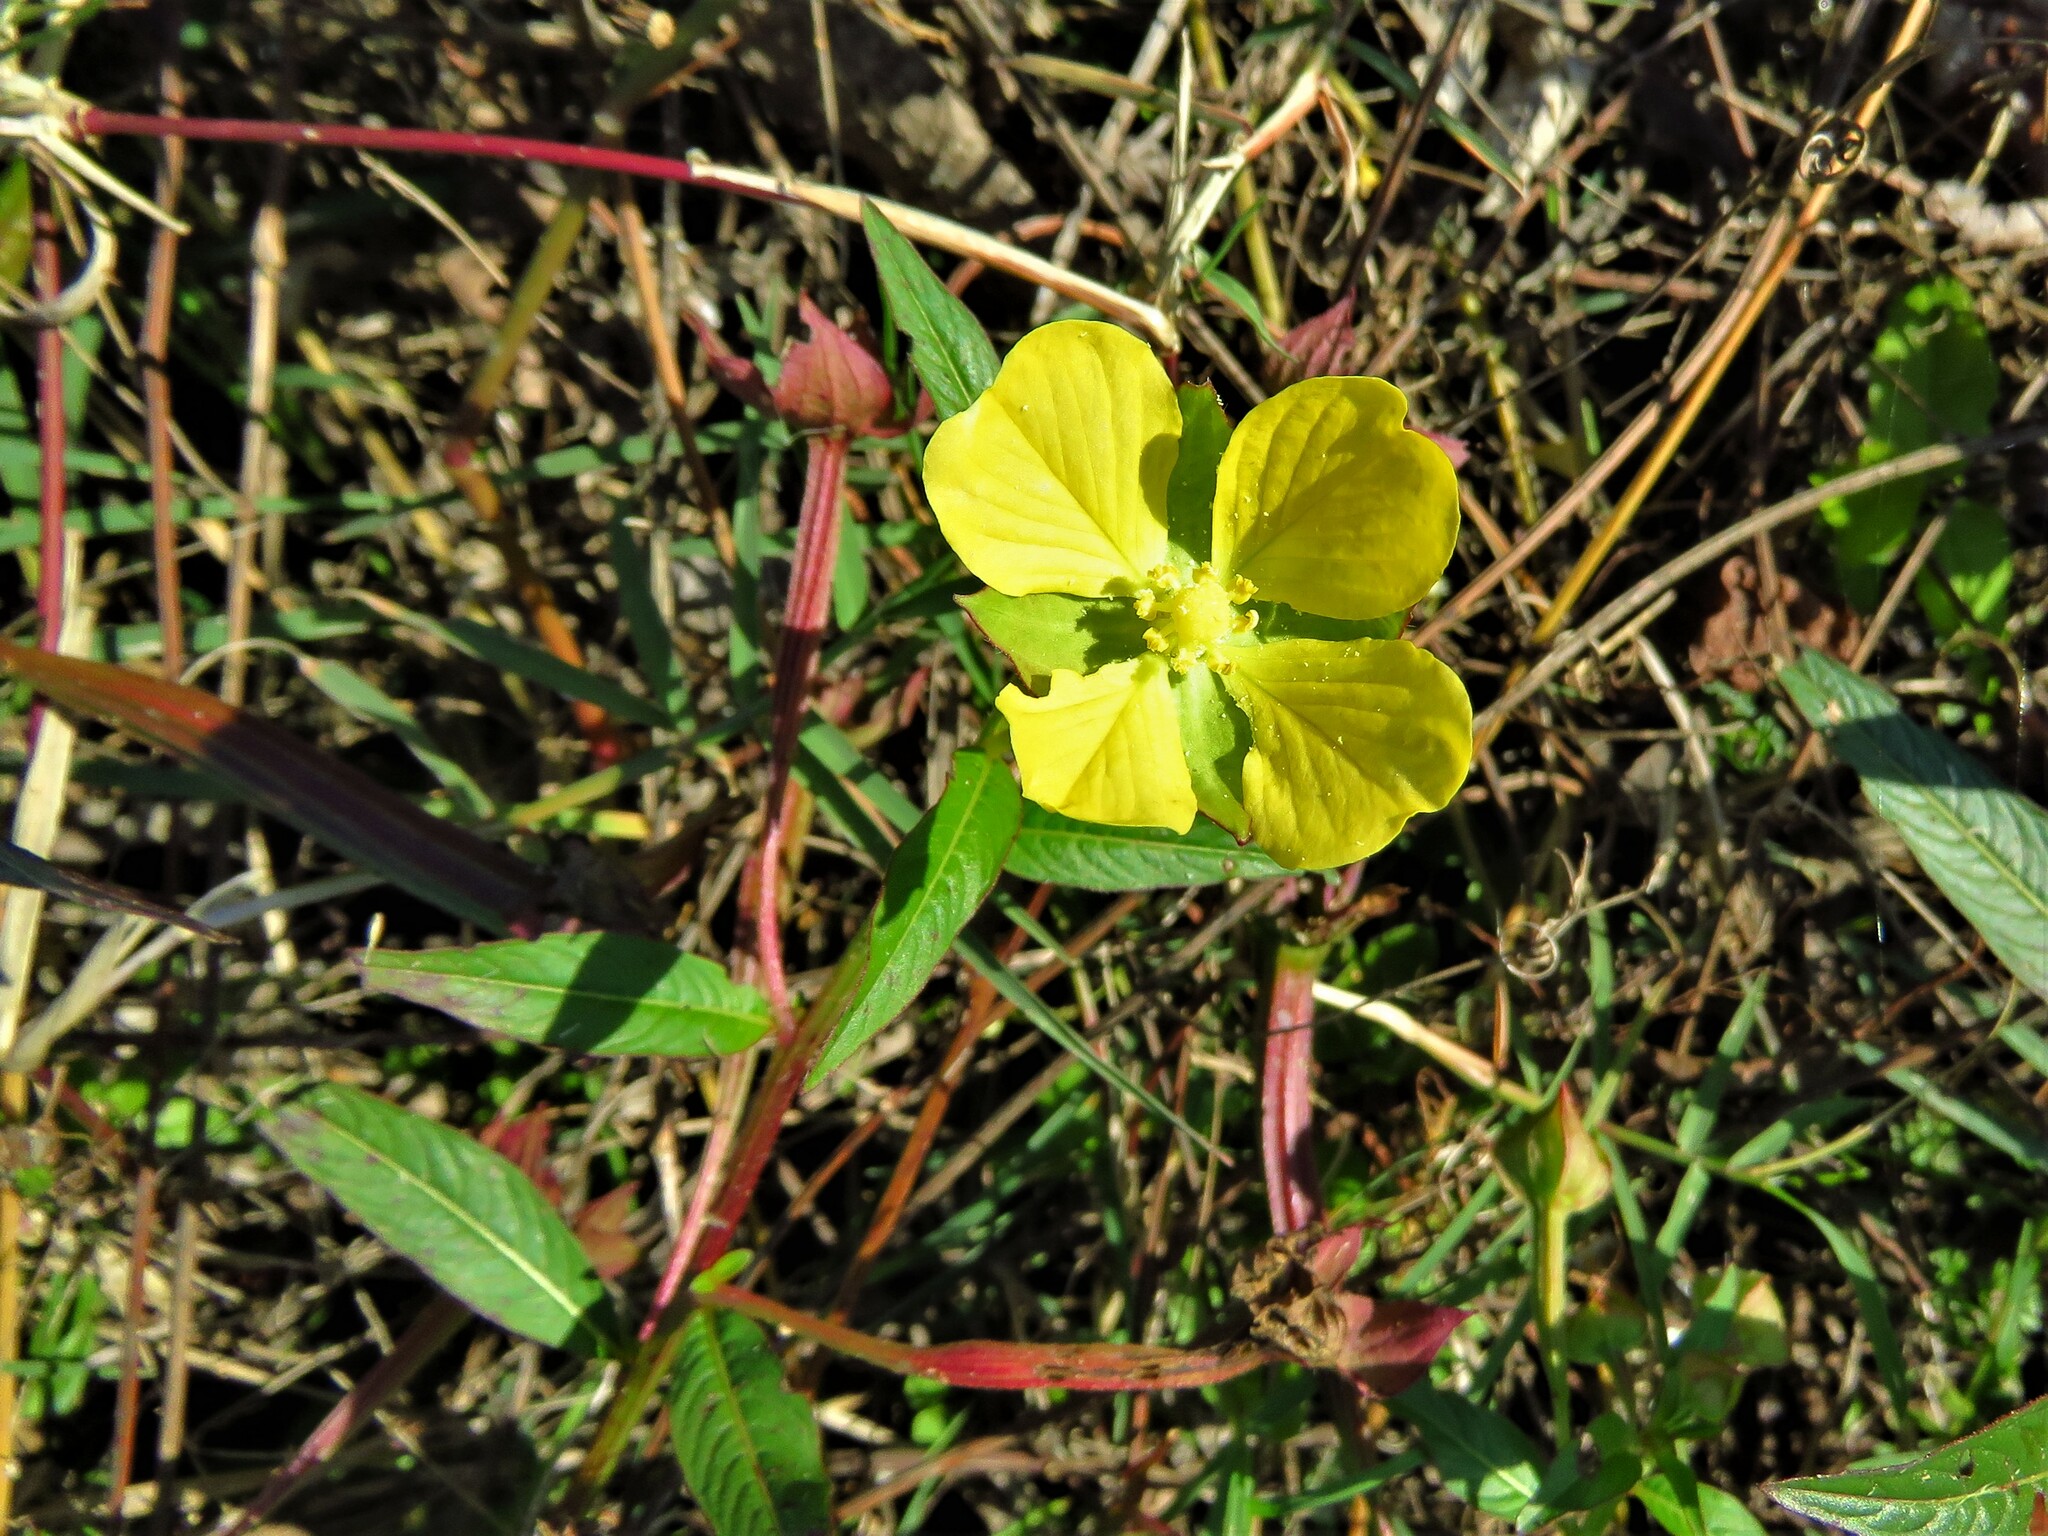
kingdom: Plantae
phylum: Tracheophyta
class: Magnoliopsida
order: Myrtales
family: Onagraceae
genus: Ludwigia
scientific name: Ludwigia octovalvis
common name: Water-primrose
